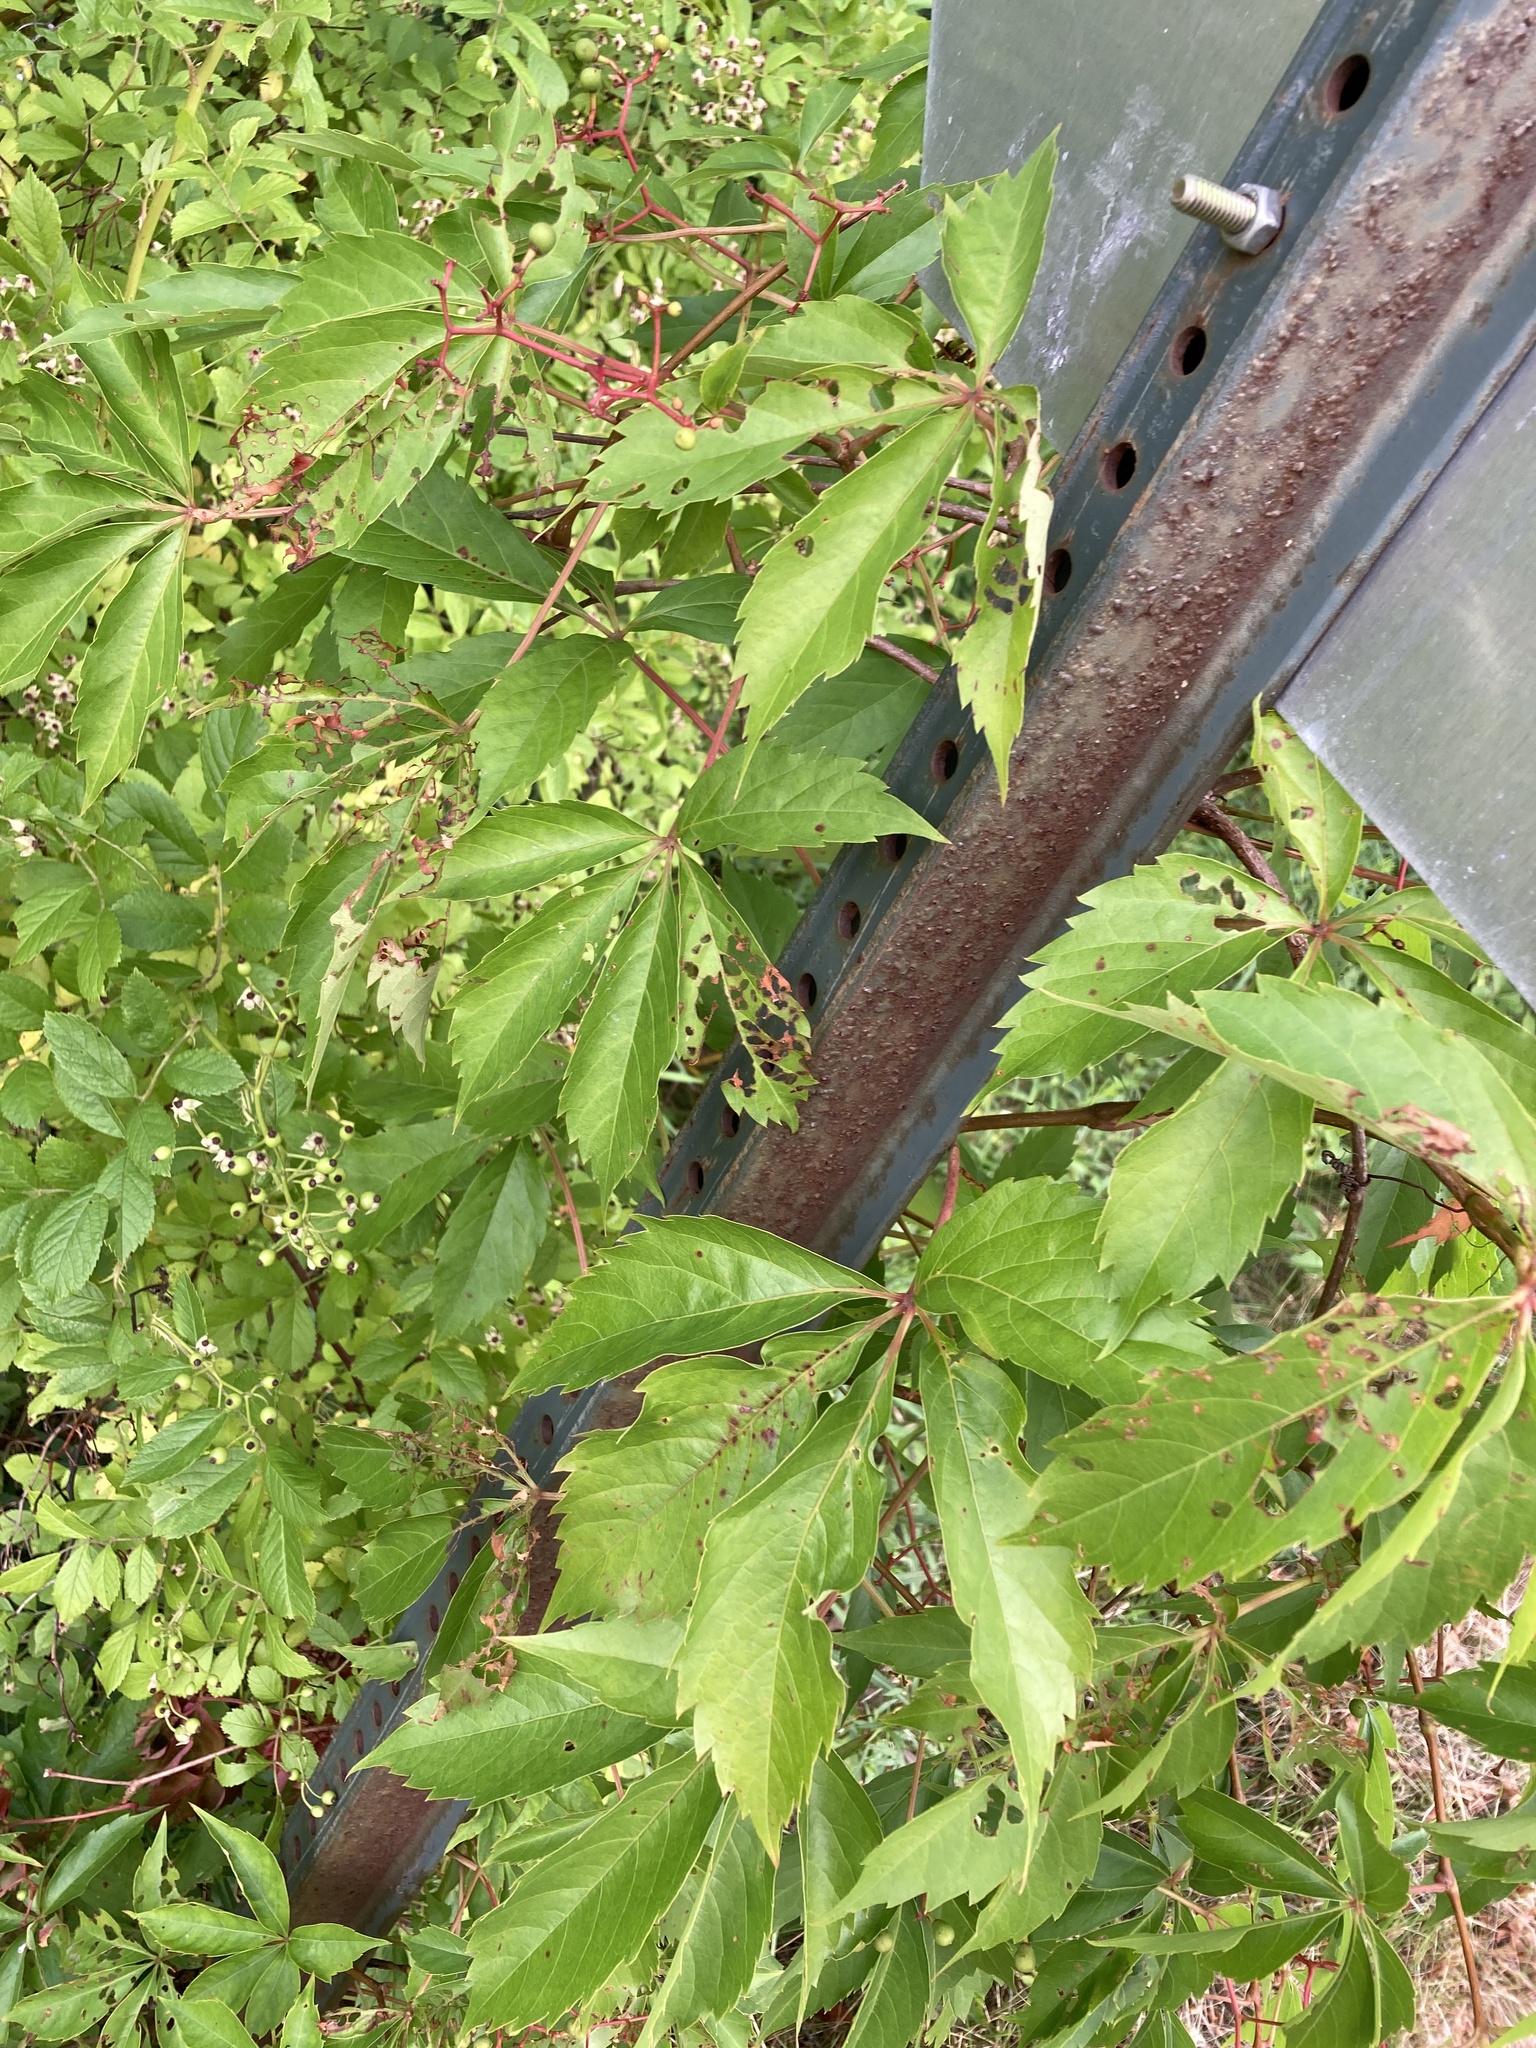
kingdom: Plantae
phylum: Tracheophyta
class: Magnoliopsida
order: Vitales
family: Vitaceae
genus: Parthenocissus
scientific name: Parthenocissus quinquefolia
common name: Virginia-creeper
